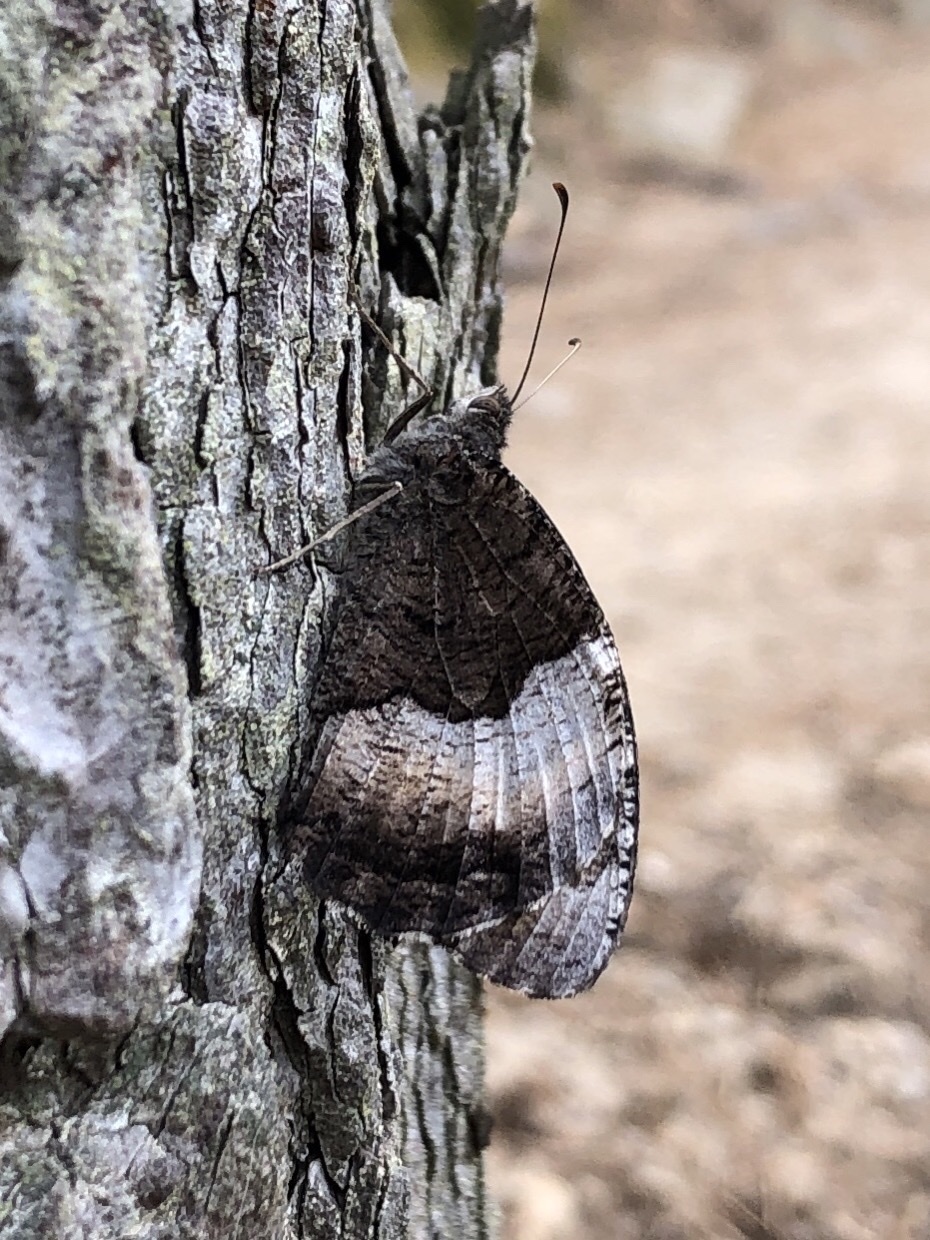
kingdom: Animalia
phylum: Arthropoda
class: Insecta
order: Lepidoptera
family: Nymphalidae
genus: Hipparchia
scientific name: Hipparchia hermione
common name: Rock grayling
